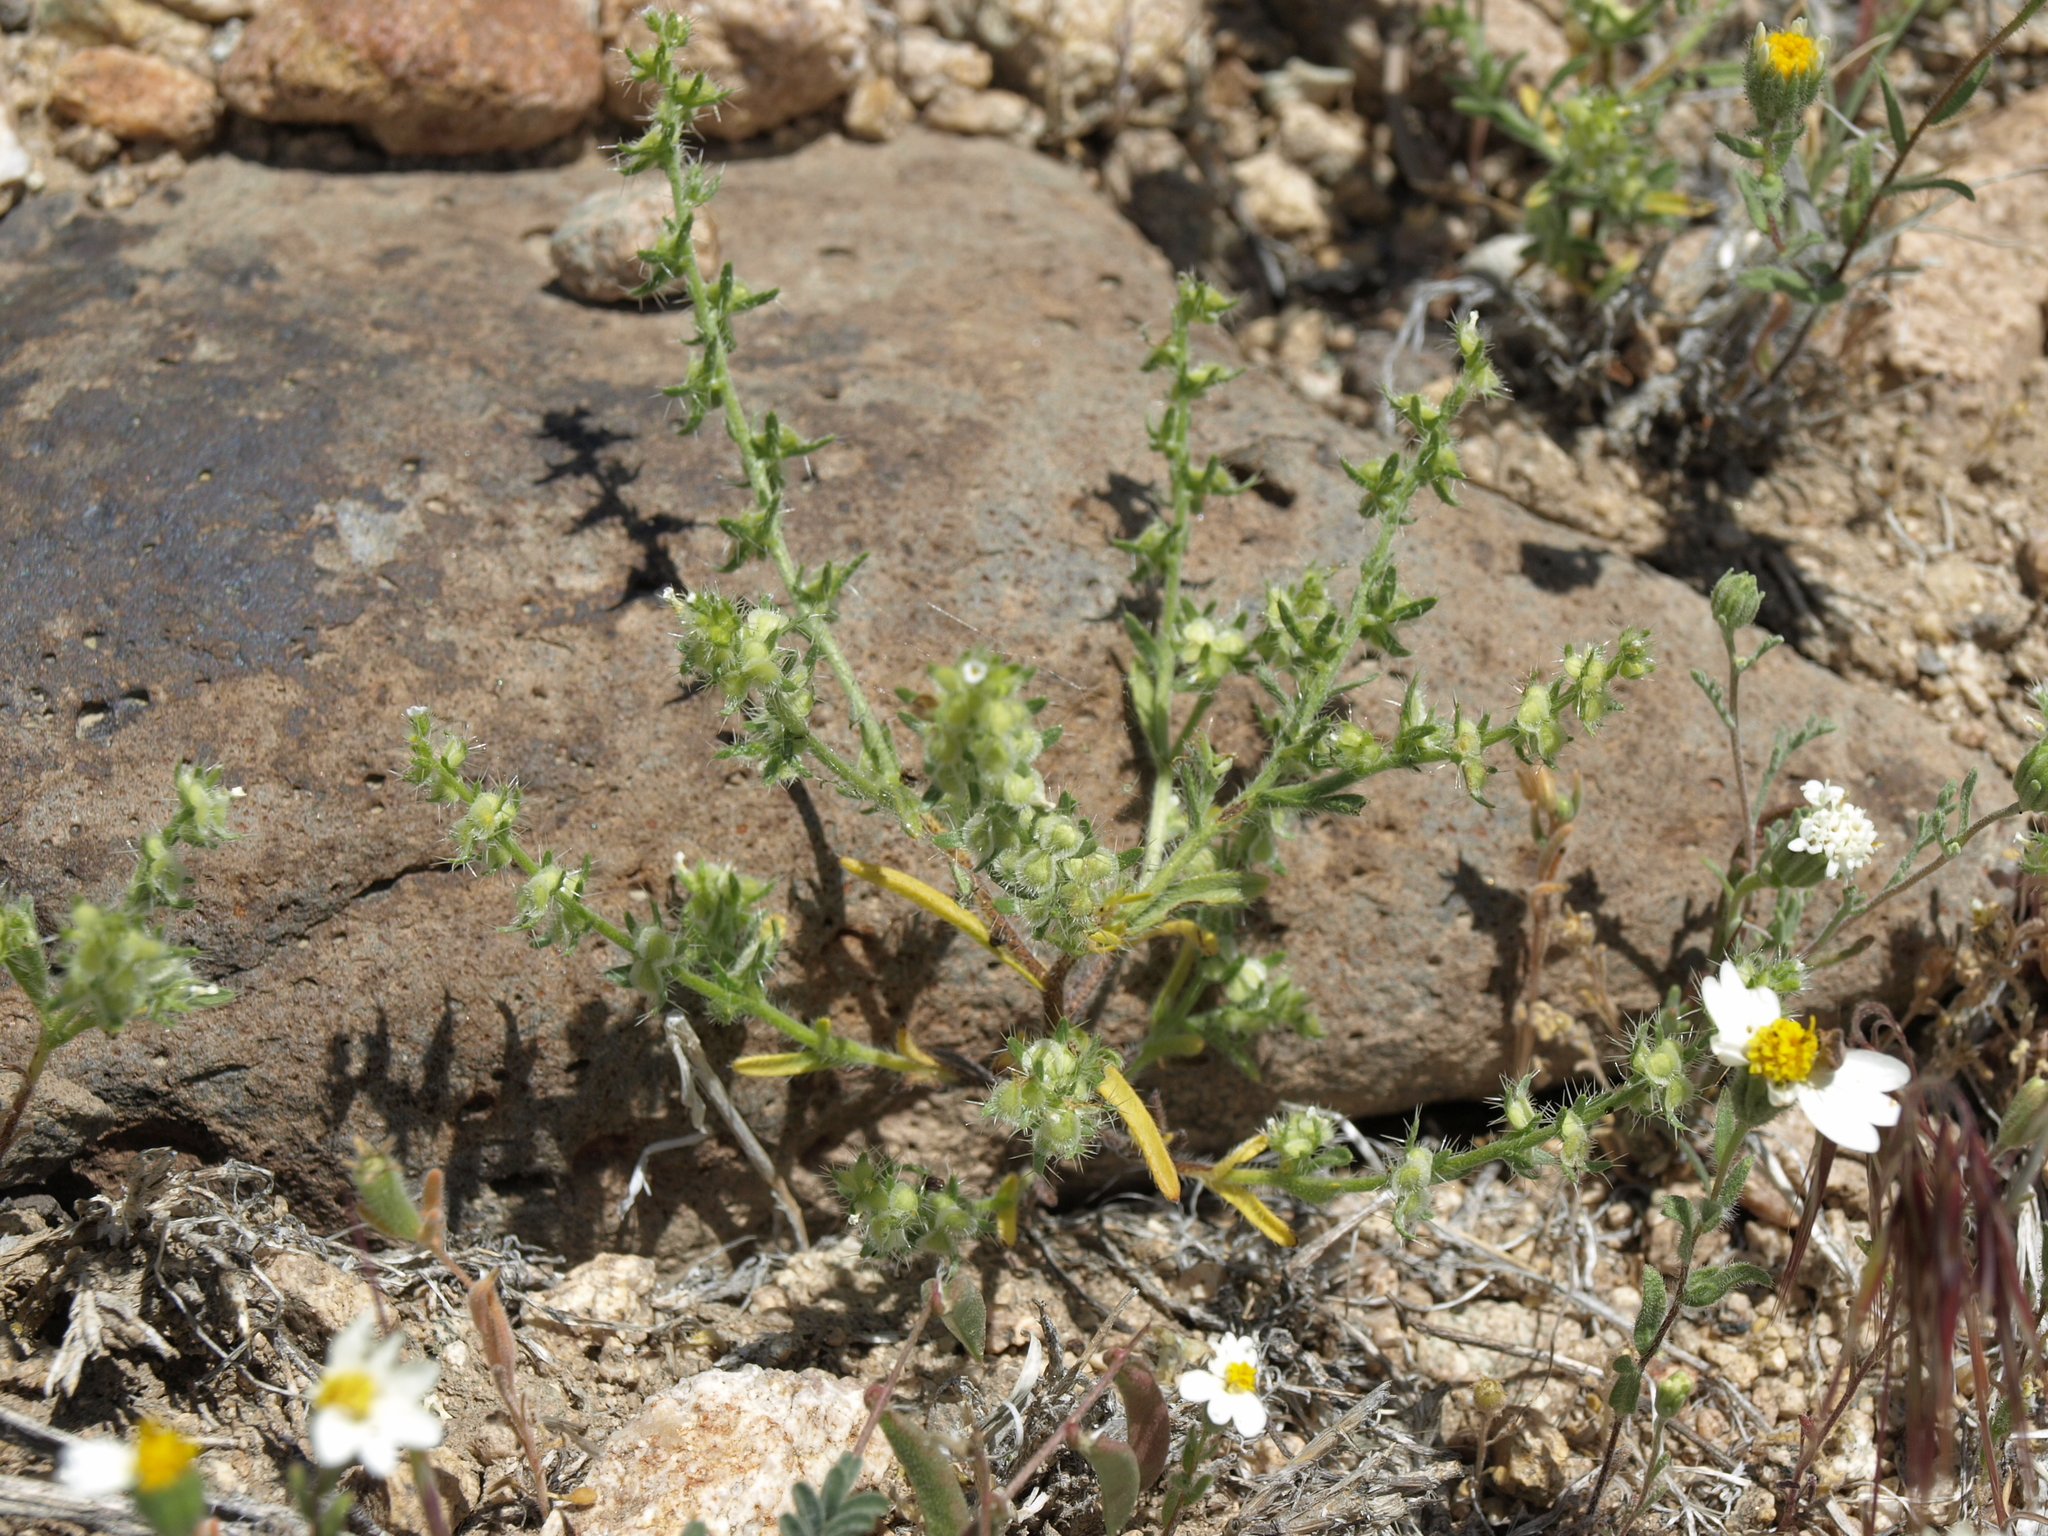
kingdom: Plantae
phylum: Tracheophyta
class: Magnoliopsida
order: Boraginales
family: Boraginaceae
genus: Pectocarya
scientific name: Pectocarya setosa
